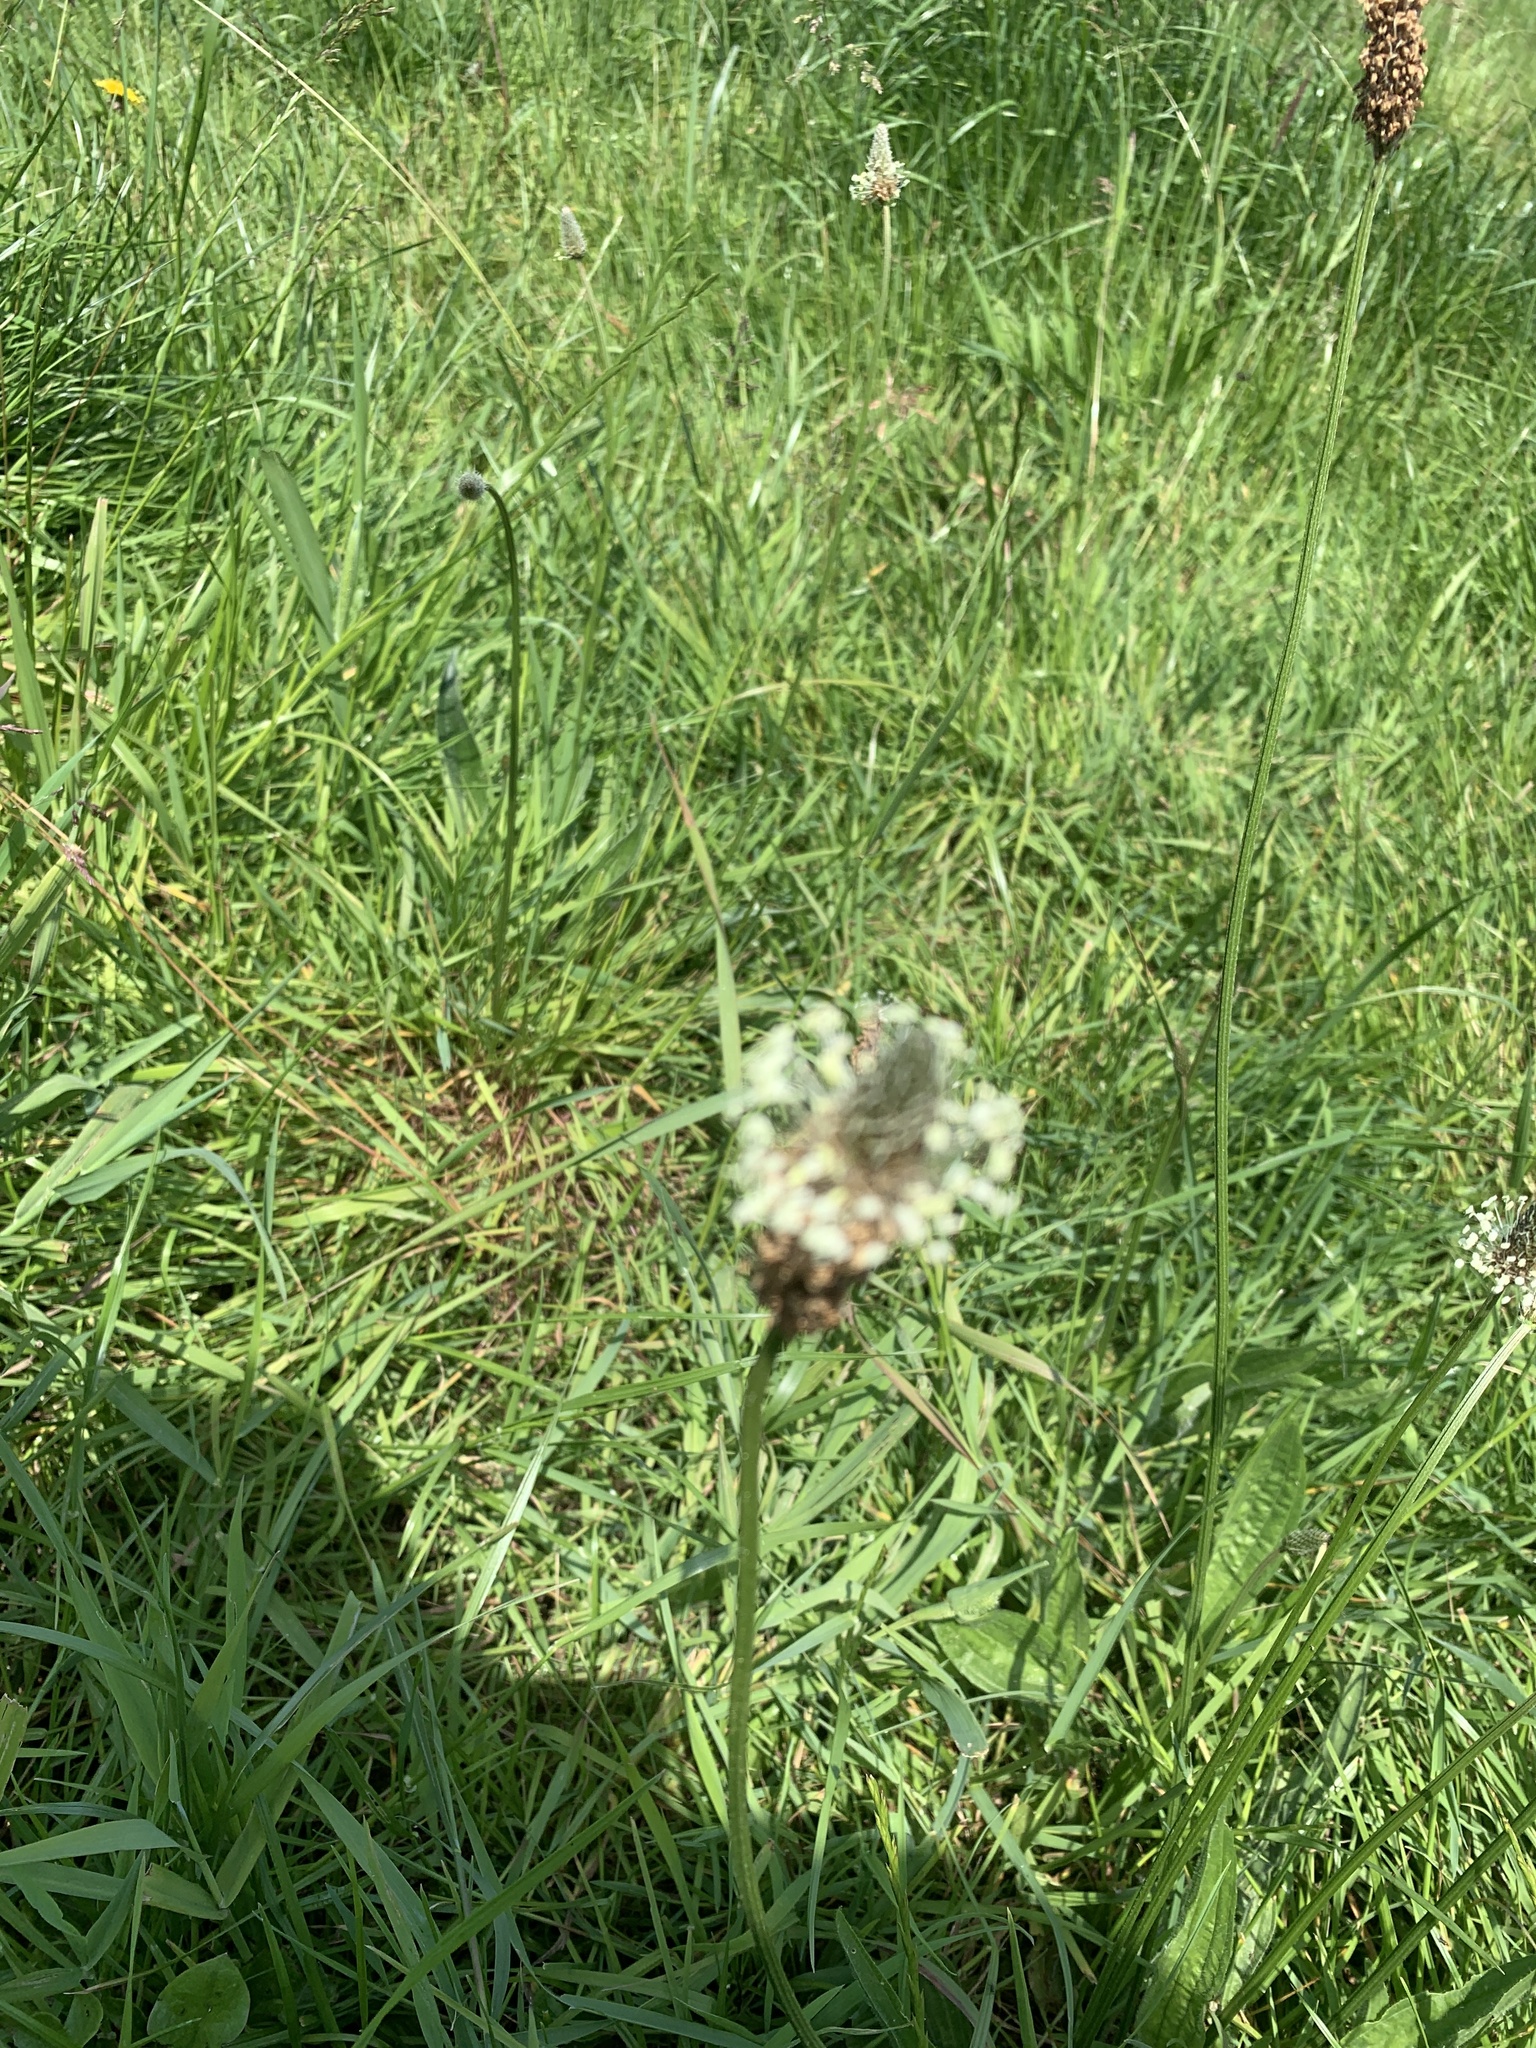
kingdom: Plantae
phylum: Tracheophyta
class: Magnoliopsida
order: Lamiales
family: Plantaginaceae
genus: Plantago
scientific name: Plantago lanceolata
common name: Ribwort plantain
